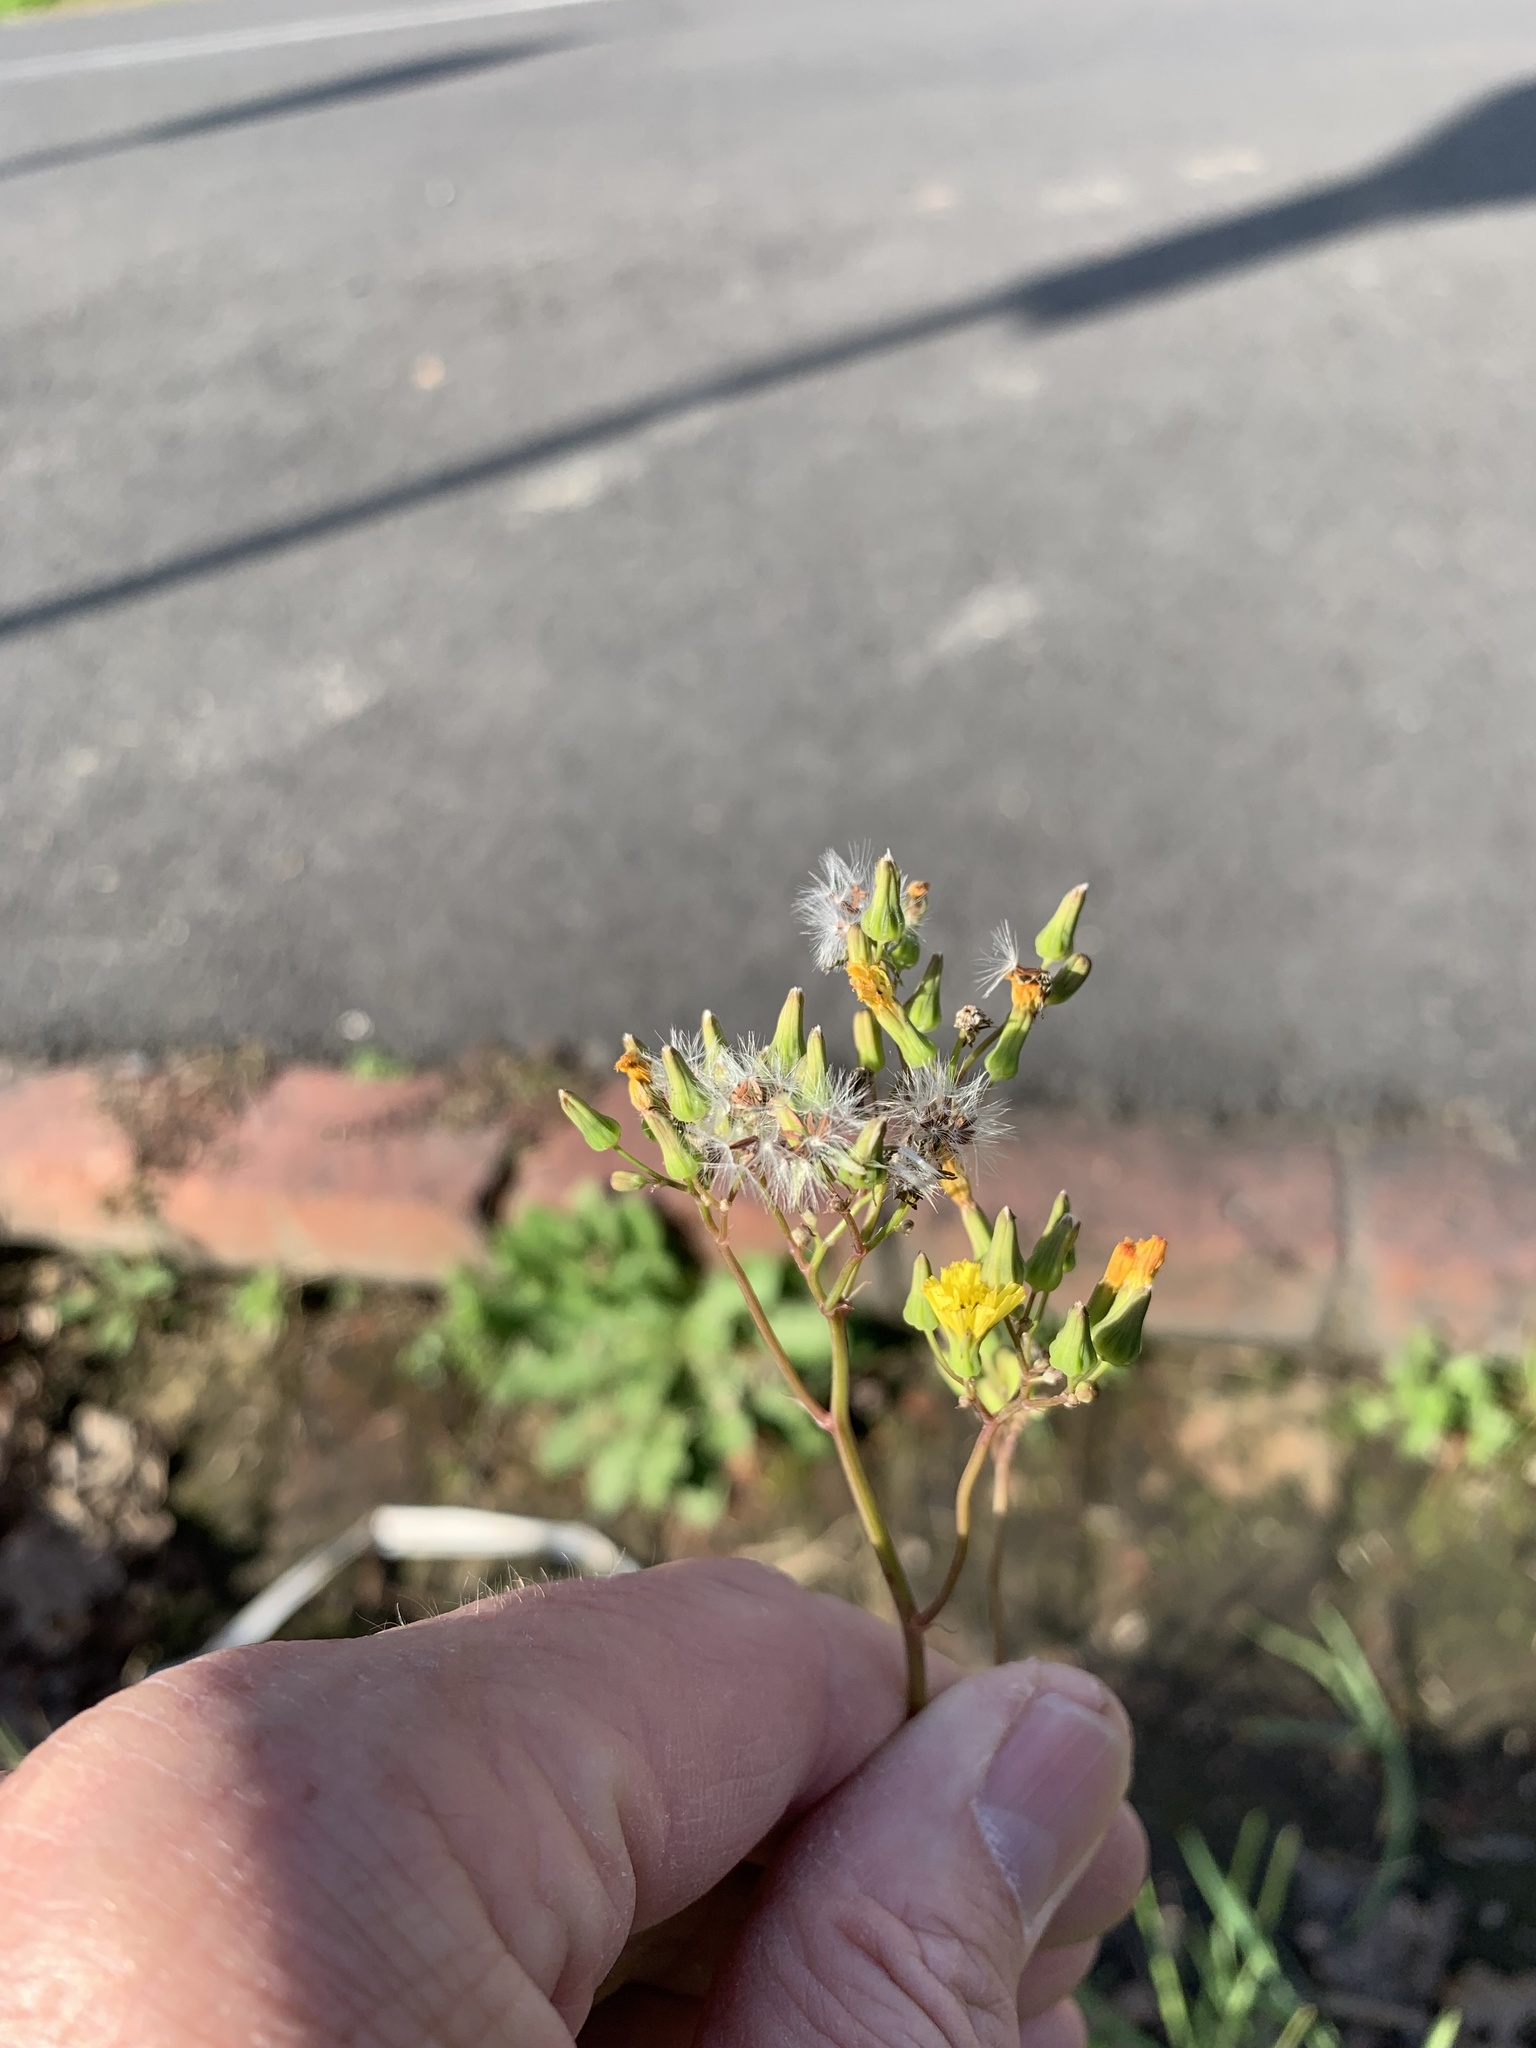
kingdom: Plantae
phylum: Tracheophyta
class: Magnoliopsida
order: Asterales
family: Asteraceae
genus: Youngia
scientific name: Youngia japonica
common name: Oriental false hawksbeard
